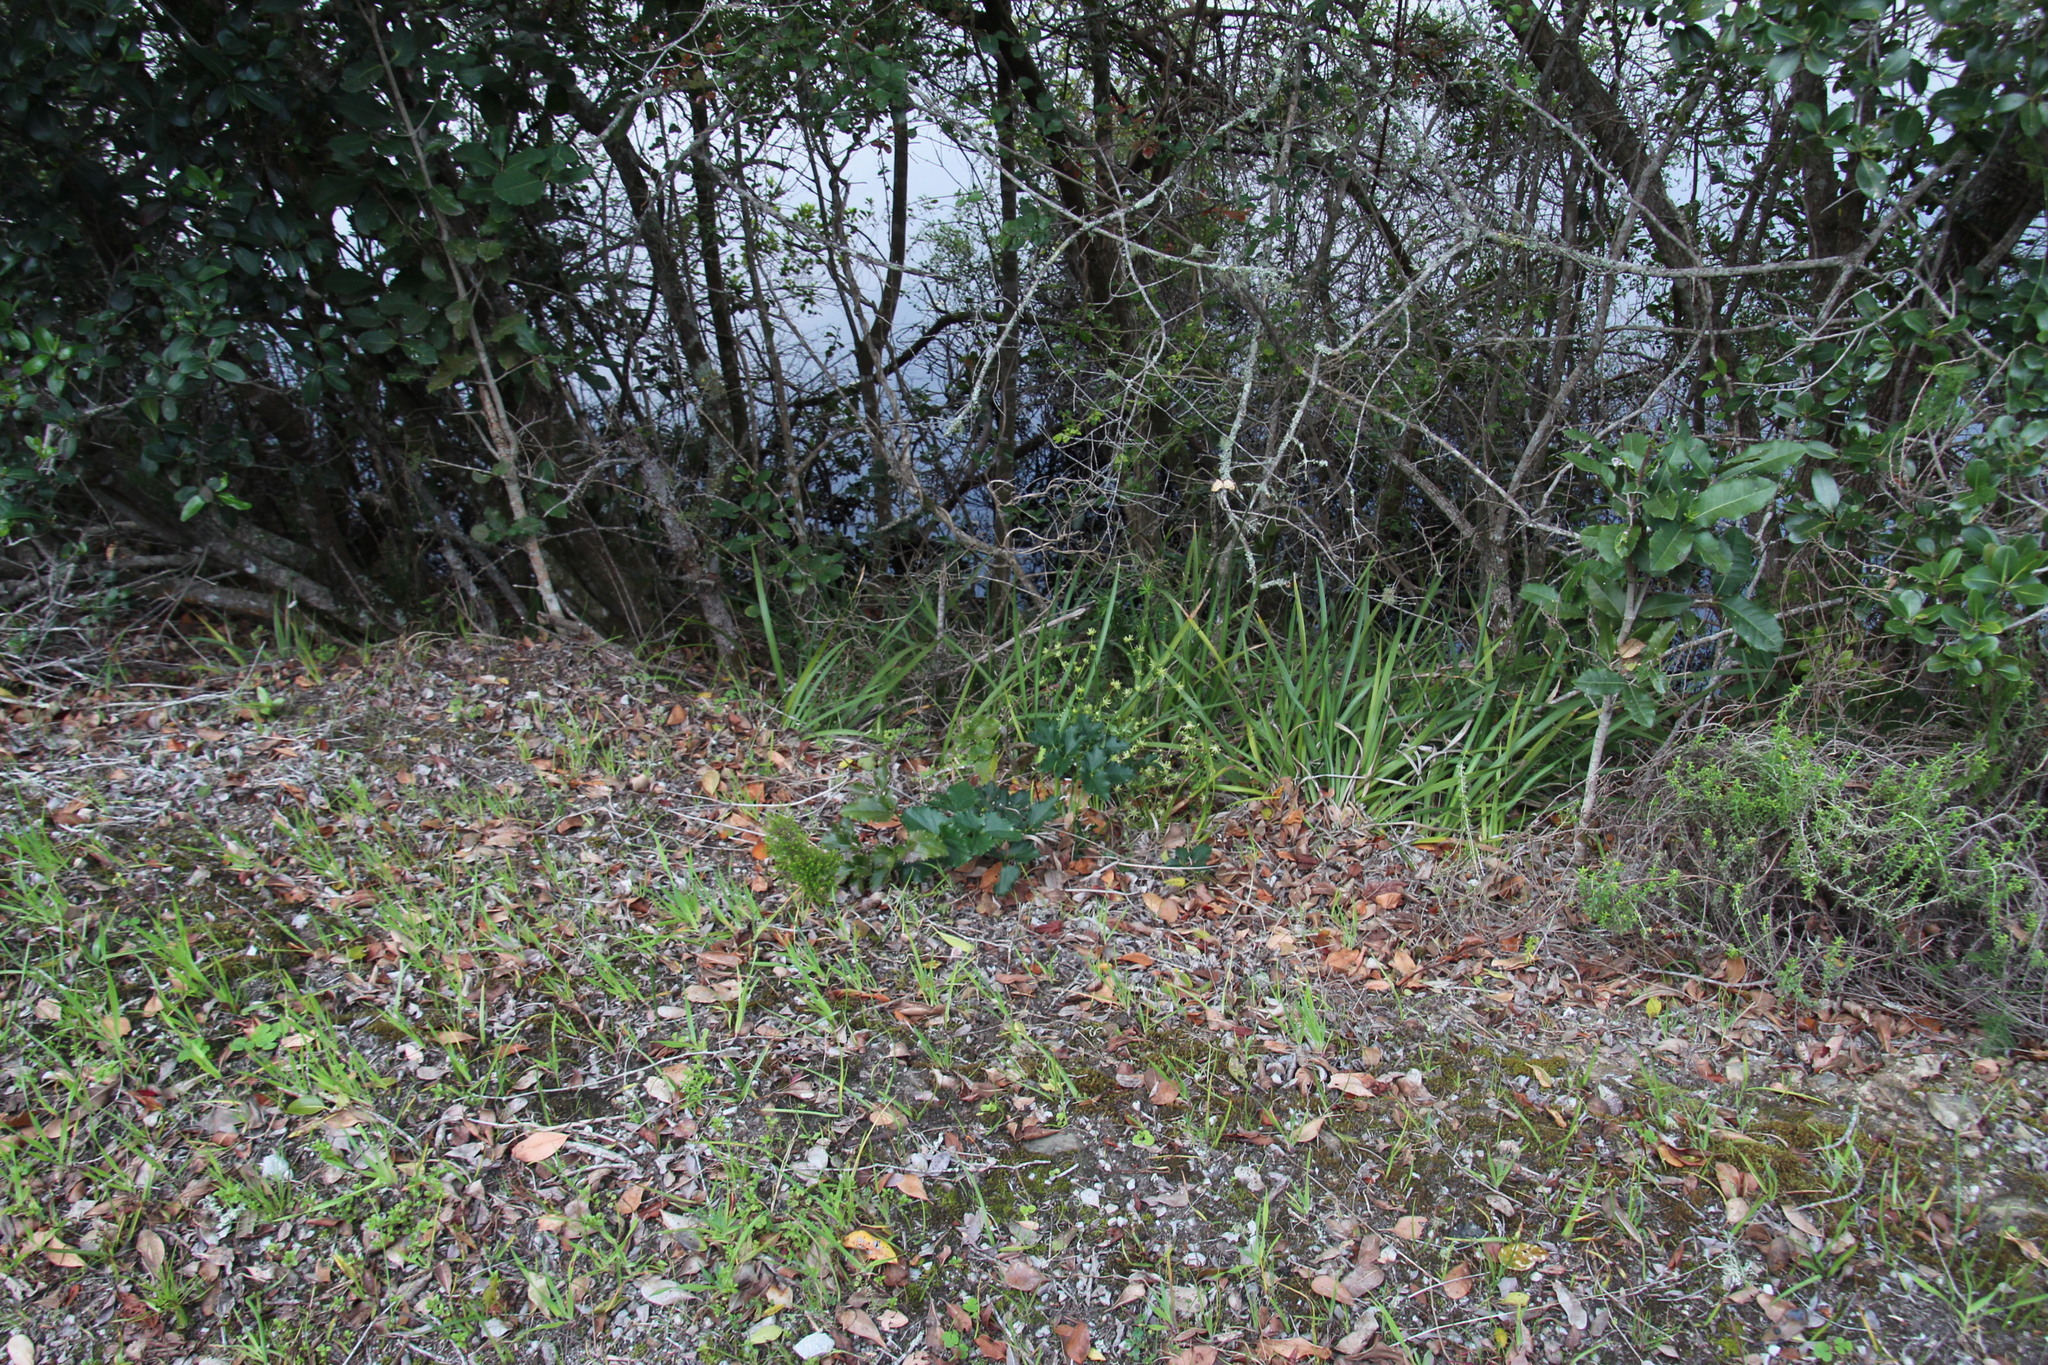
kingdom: Plantae
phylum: Tracheophyta
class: Magnoliopsida
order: Ranunculales
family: Ranunculaceae
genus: Knowltonia
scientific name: Knowltonia vesicatoria
